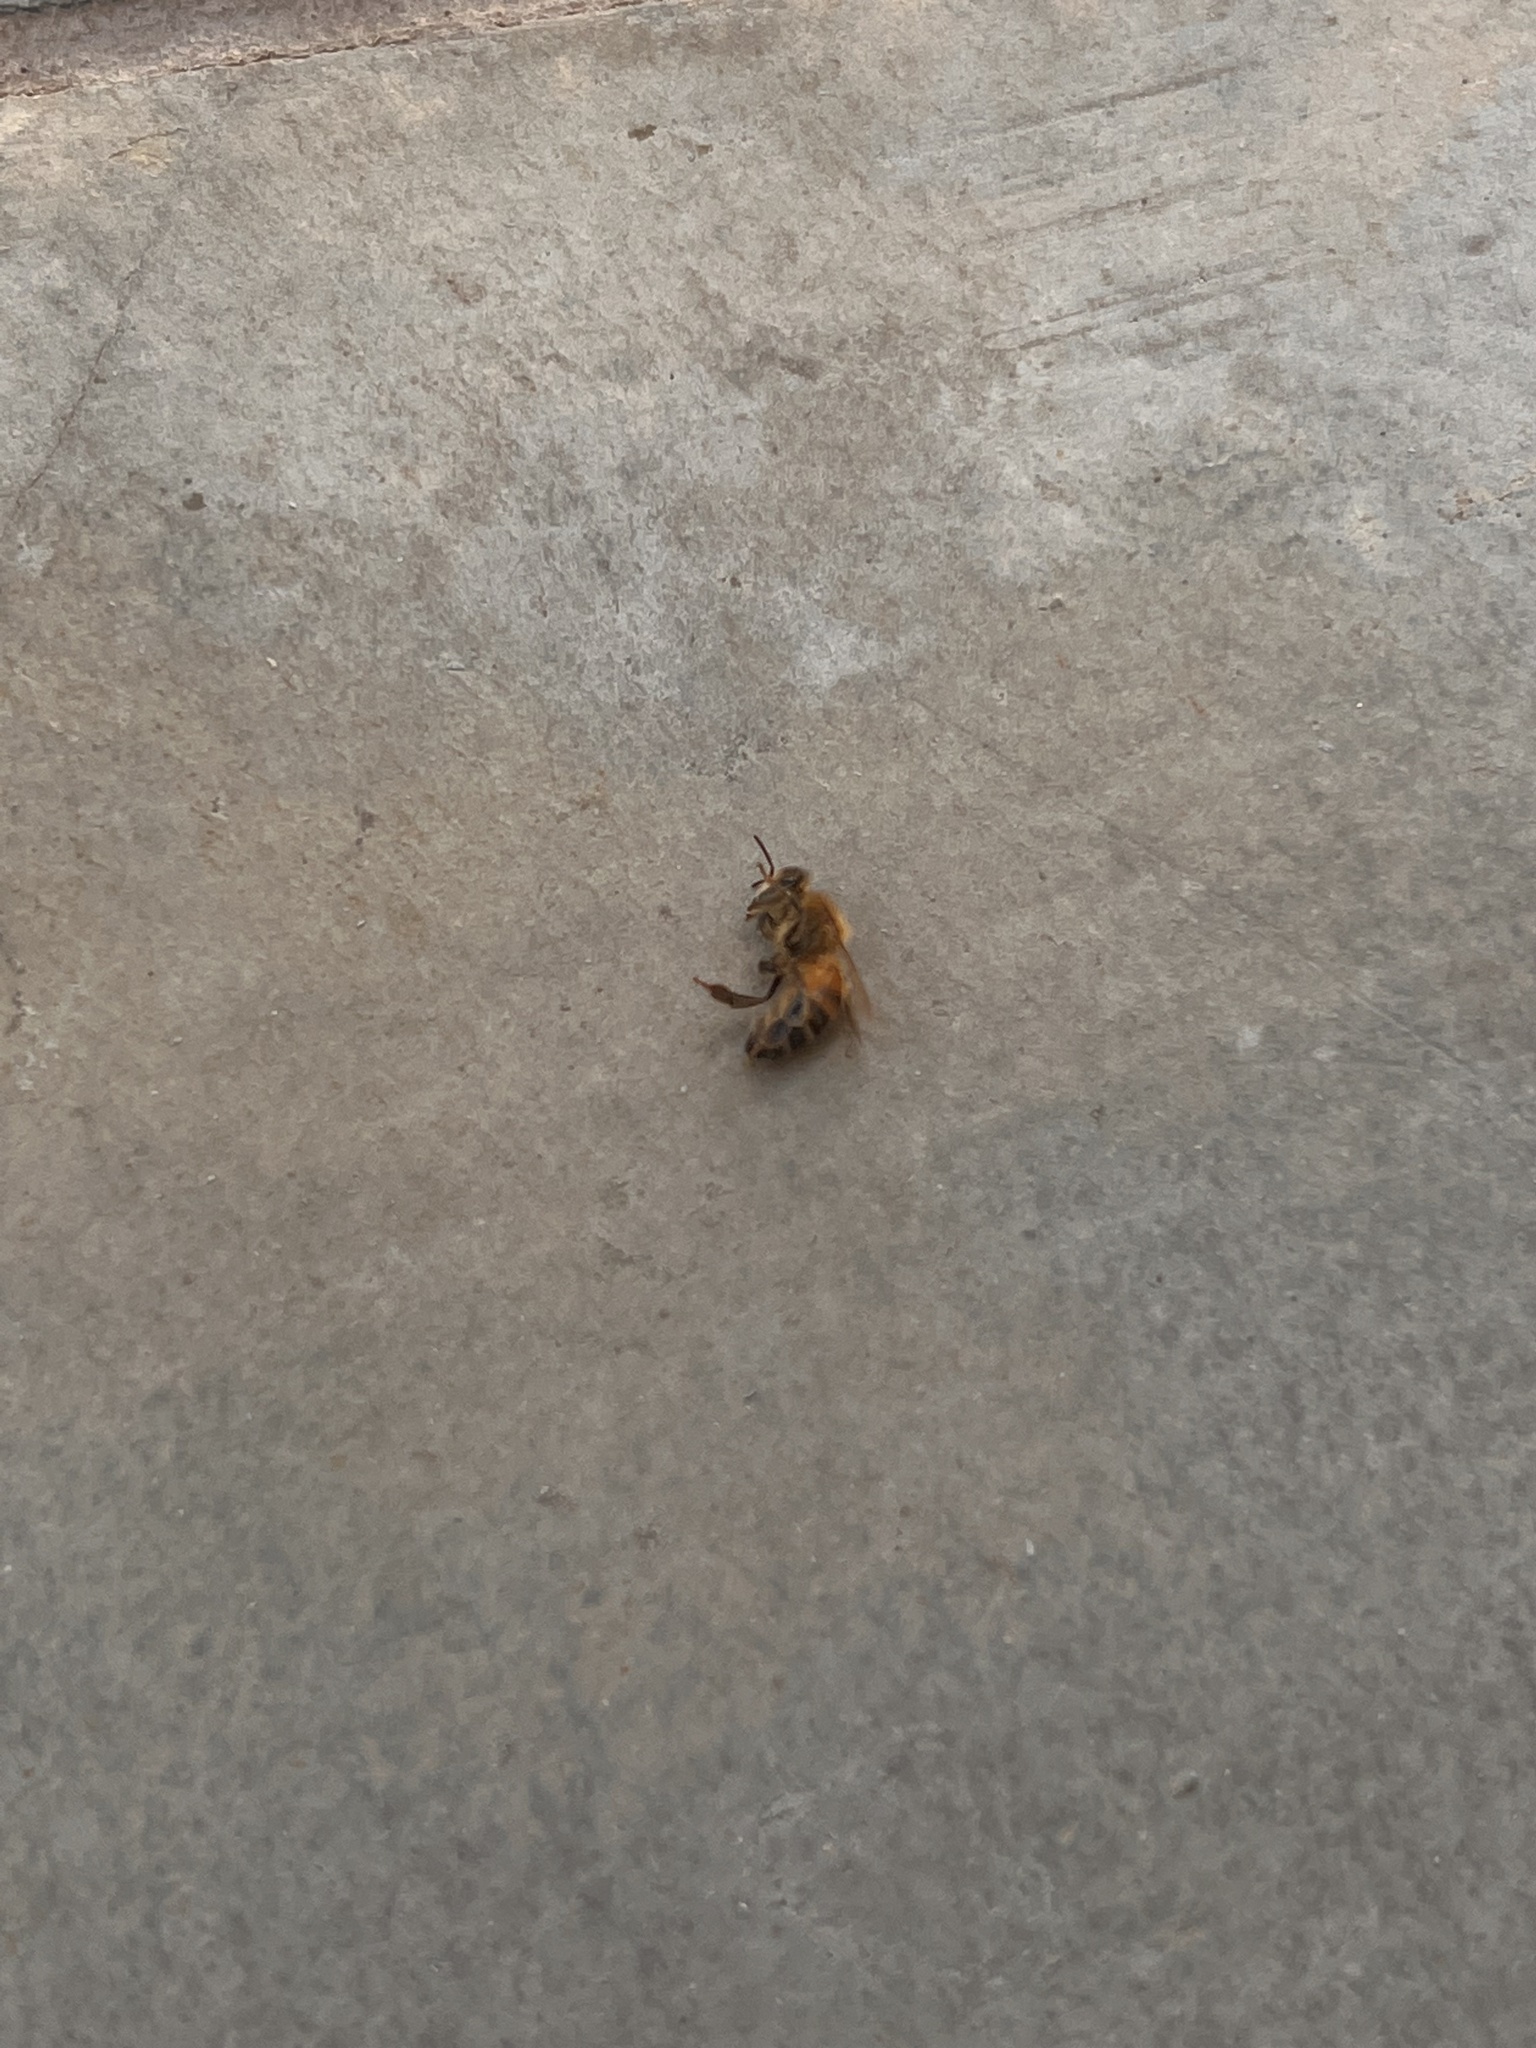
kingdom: Animalia
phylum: Arthropoda
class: Insecta
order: Hymenoptera
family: Apidae
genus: Apis
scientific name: Apis mellifera
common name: Honey bee
